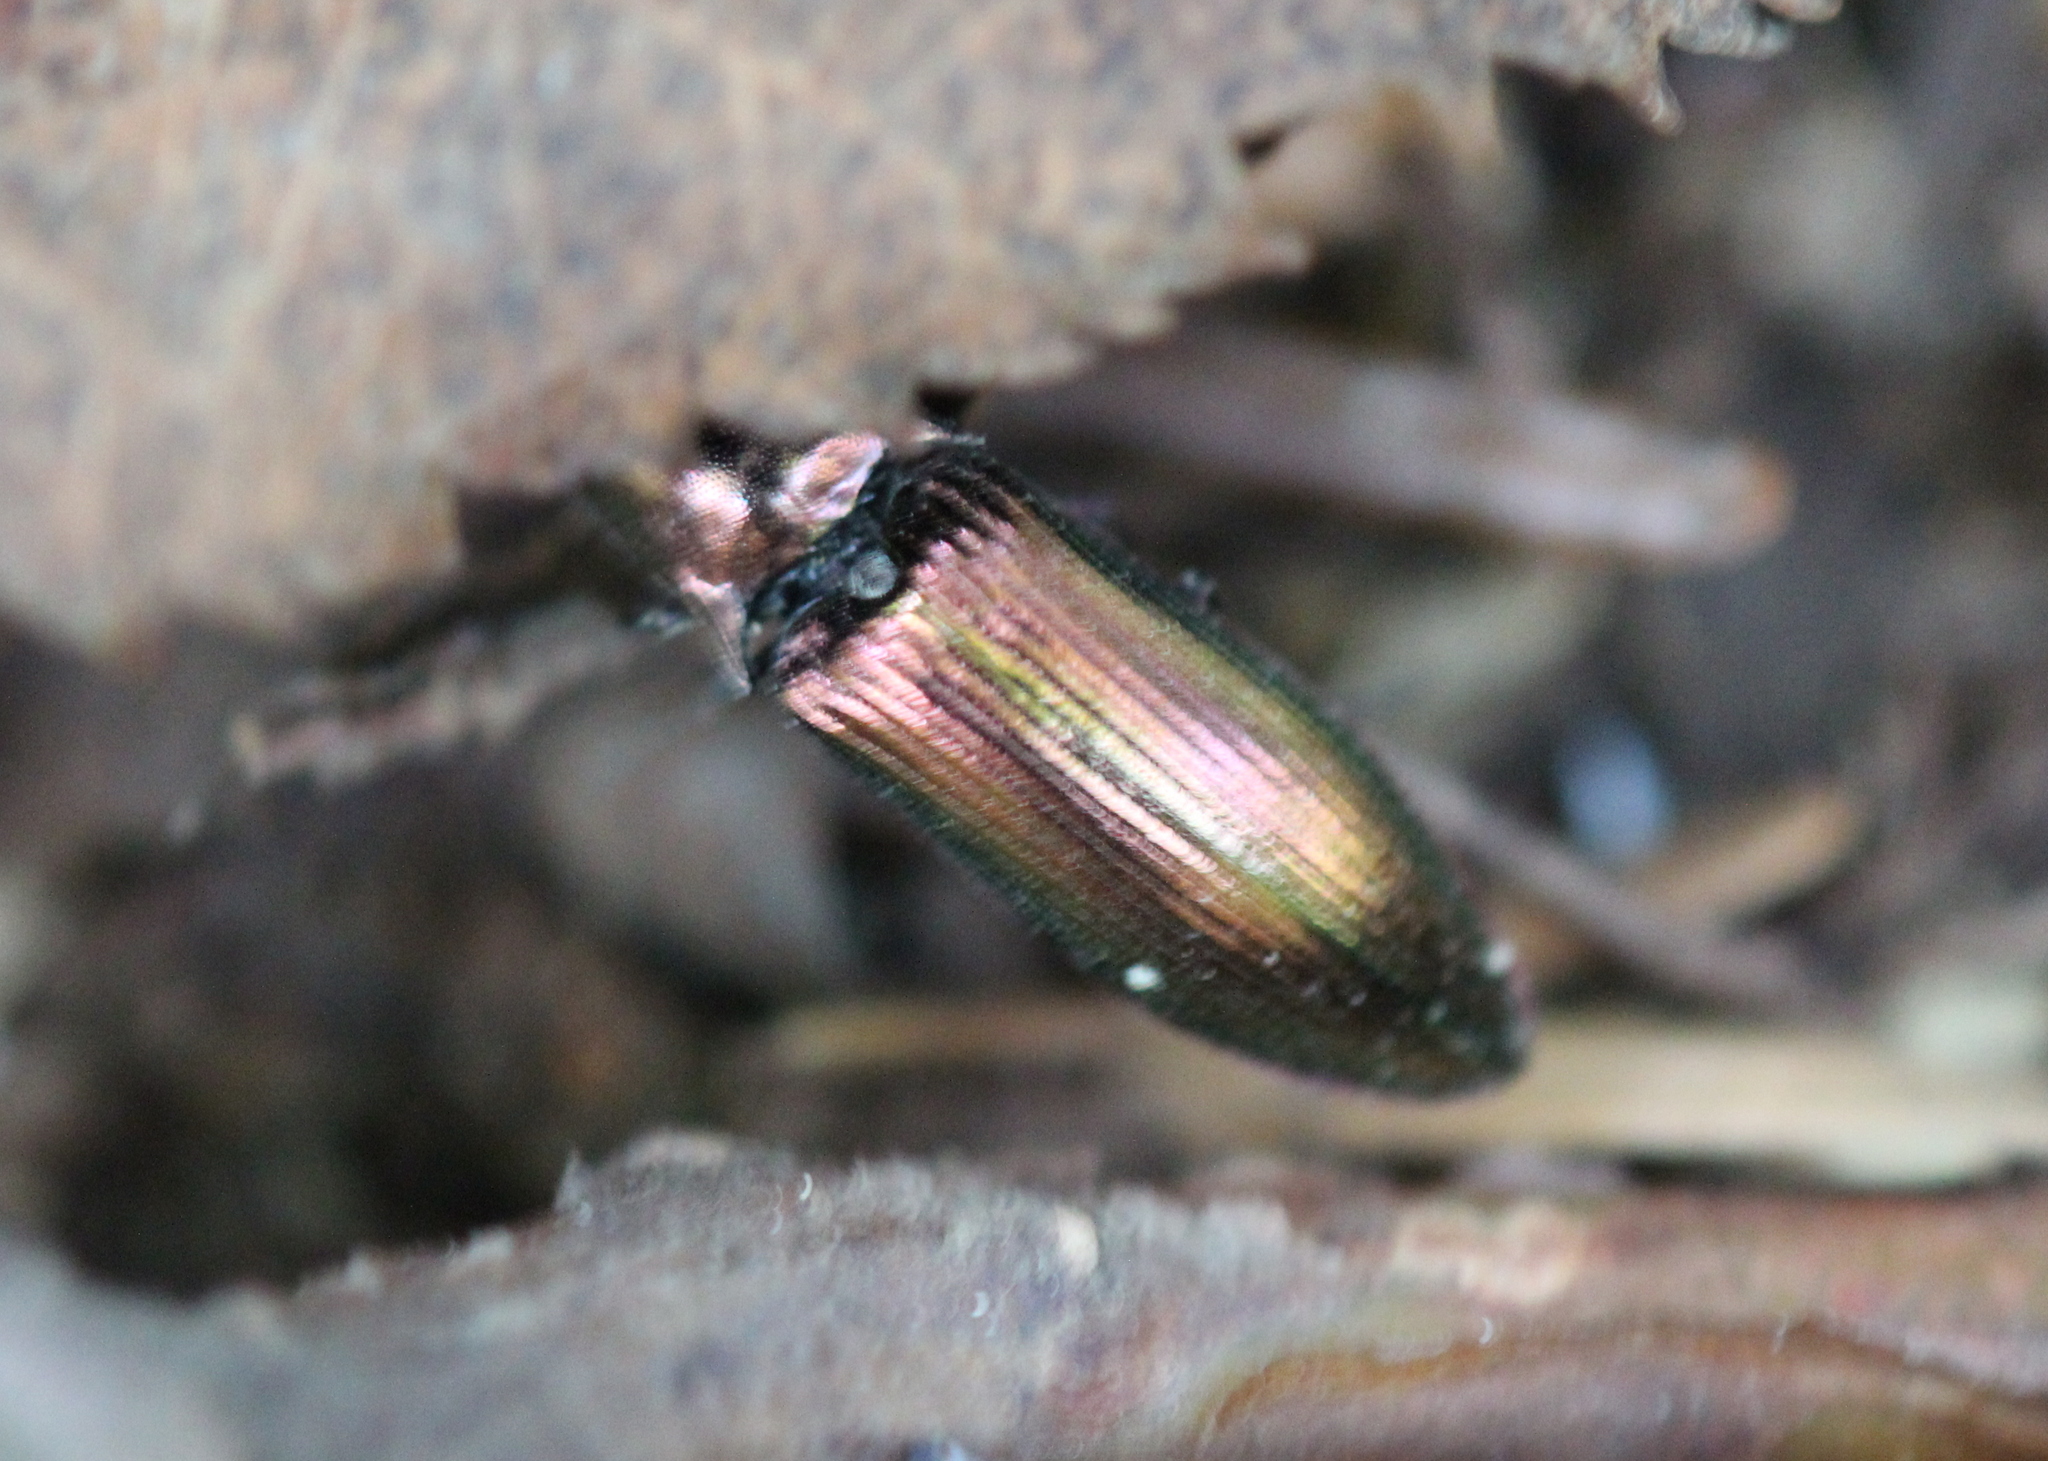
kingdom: Animalia
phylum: Arthropoda
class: Insecta
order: Coleoptera
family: Elateridae
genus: Nitidolimonius
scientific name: Nitidolimonius resplendens
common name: Resplendent click beetle
